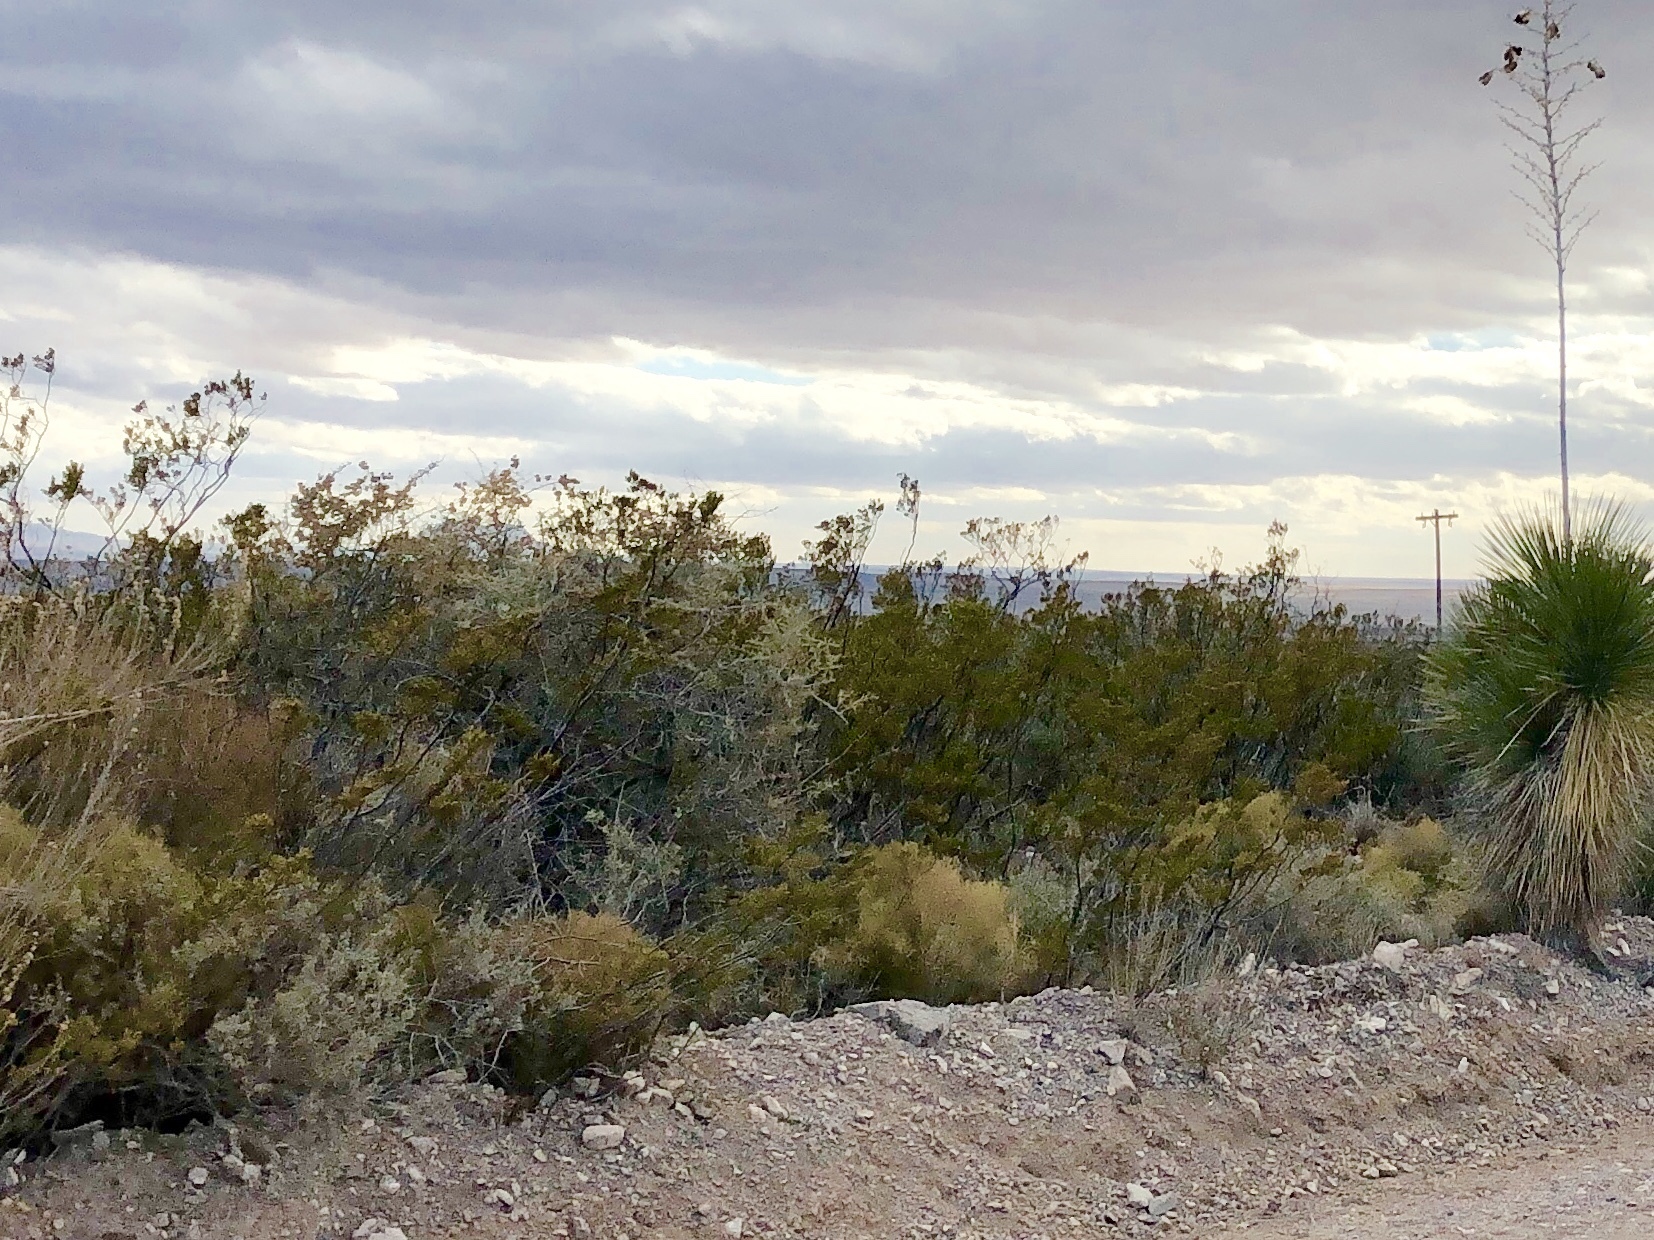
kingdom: Plantae
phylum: Tracheophyta
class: Magnoliopsida
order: Zygophyllales
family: Zygophyllaceae
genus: Larrea
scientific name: Larrea tridentata
